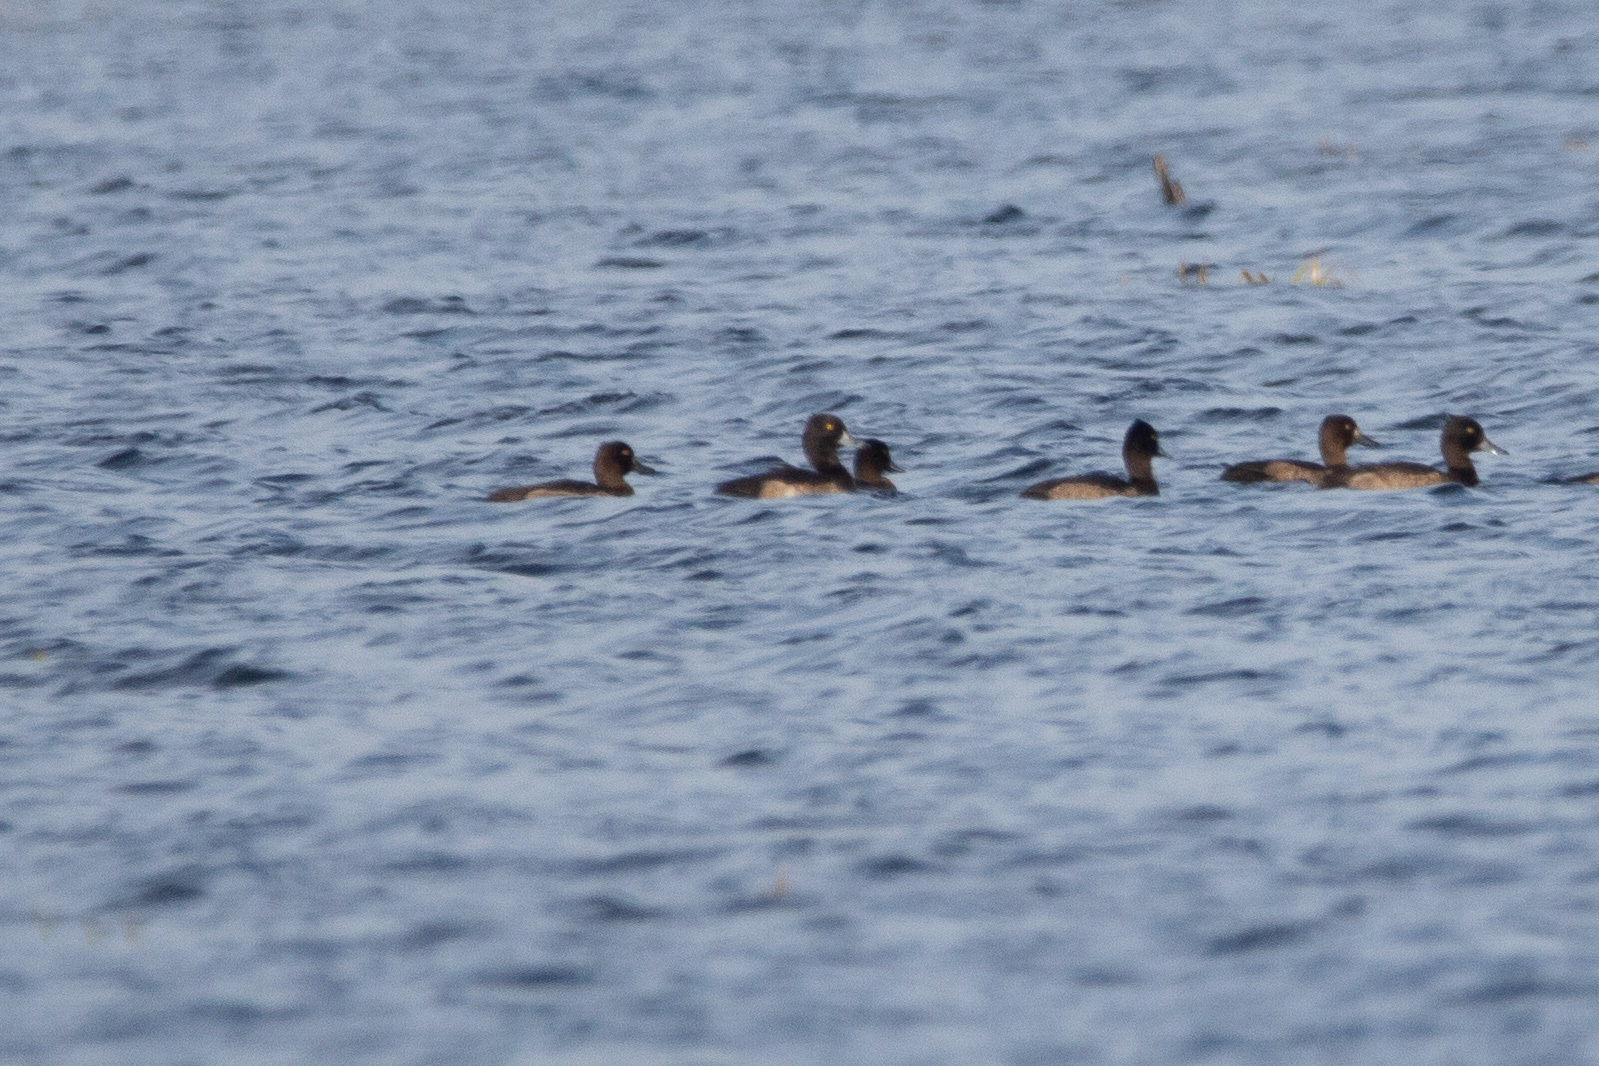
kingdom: Animalia
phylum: Chordata
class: Aves
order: Anseriformes
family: Anatidae
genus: Aythya
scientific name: Aythya fuligula
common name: Tufted duck
